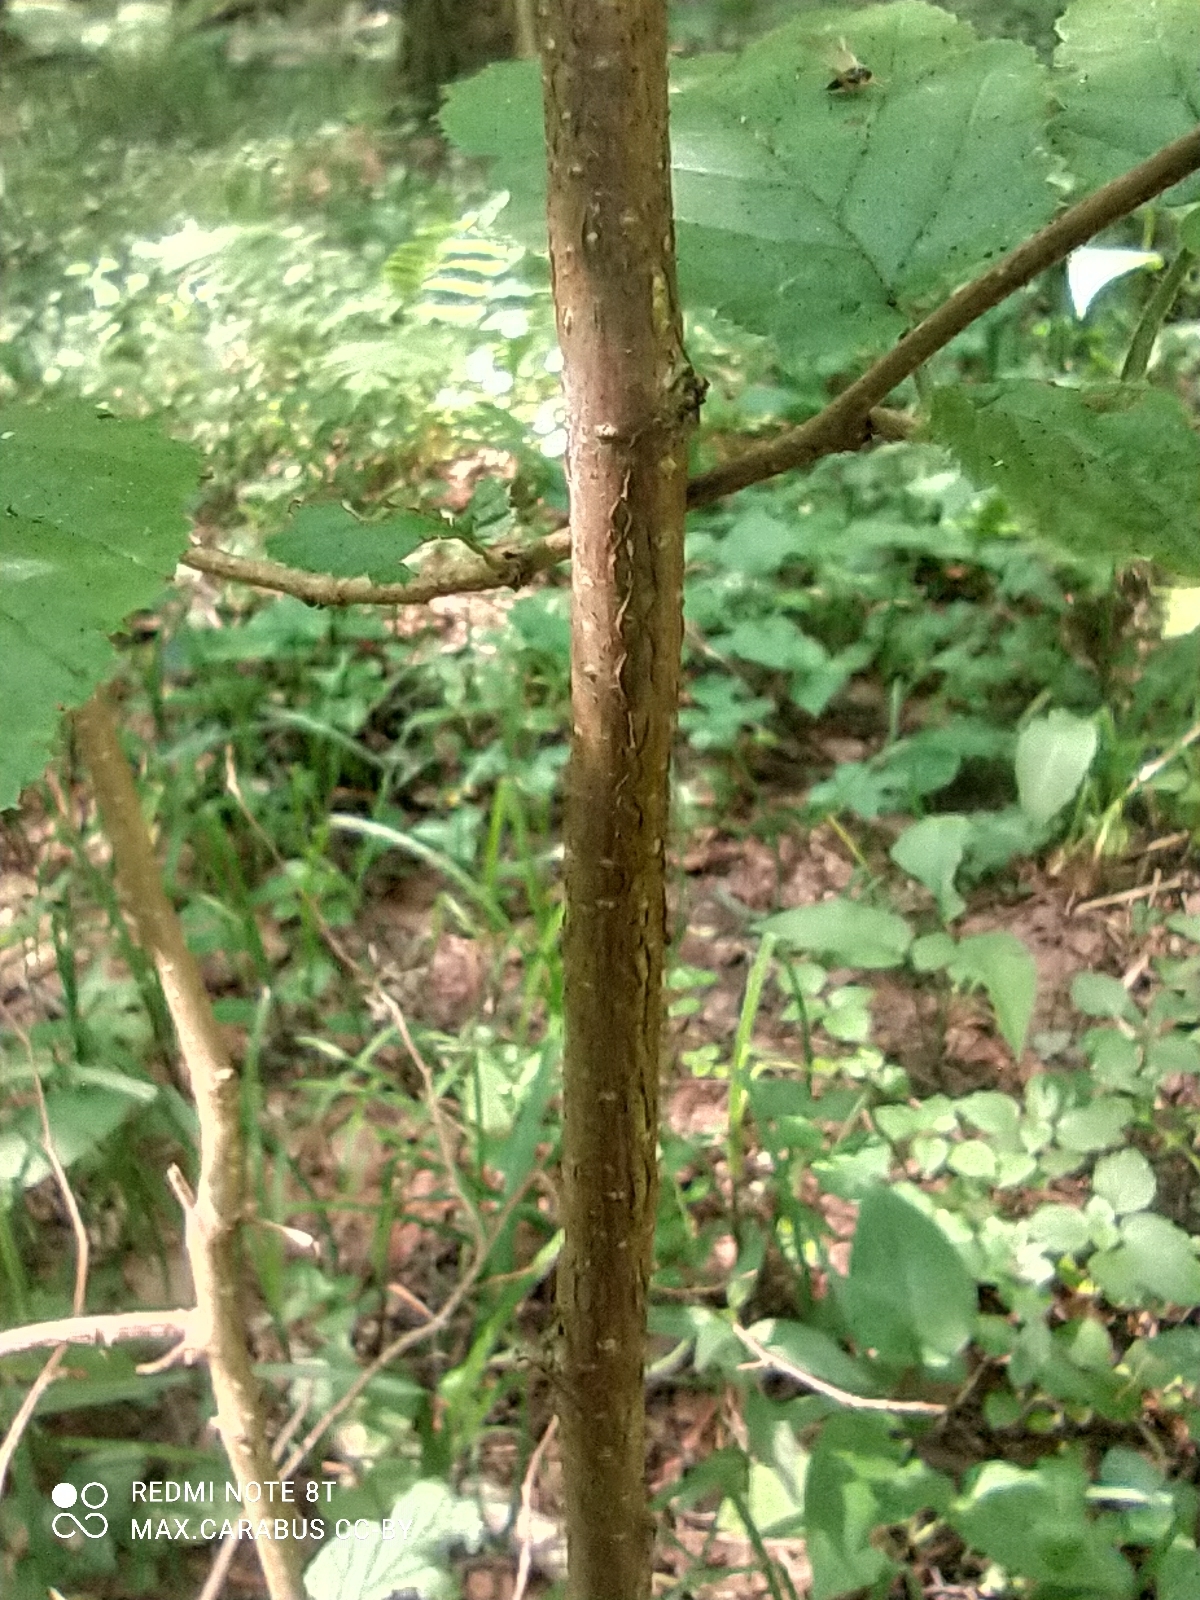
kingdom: Plantae
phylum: Tracheophyta
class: Magnoliopsida
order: Fagales
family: Betulaceae
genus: Corylus
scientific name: Corylus avellana
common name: European hazel
